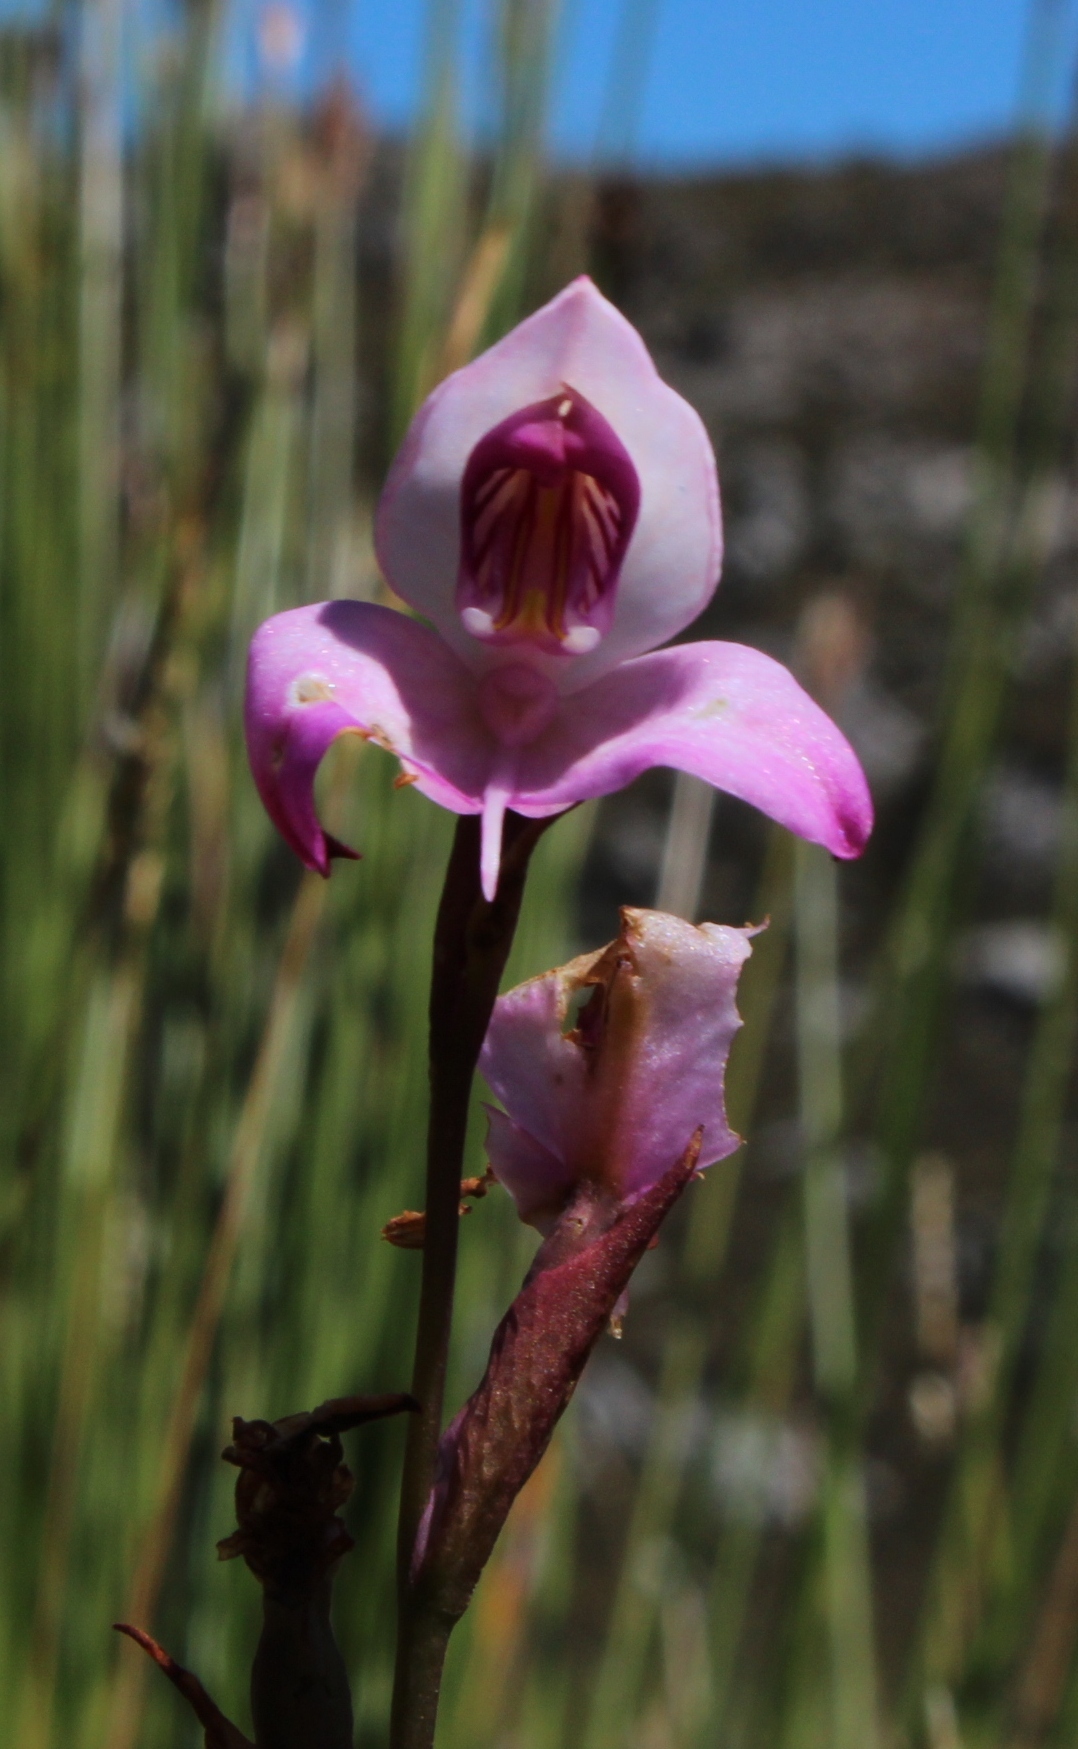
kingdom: Plantae
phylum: Tracheophyta
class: Liliopsida
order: Asparagales
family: Orchidaceae
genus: Disa
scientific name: Disa racemosa
